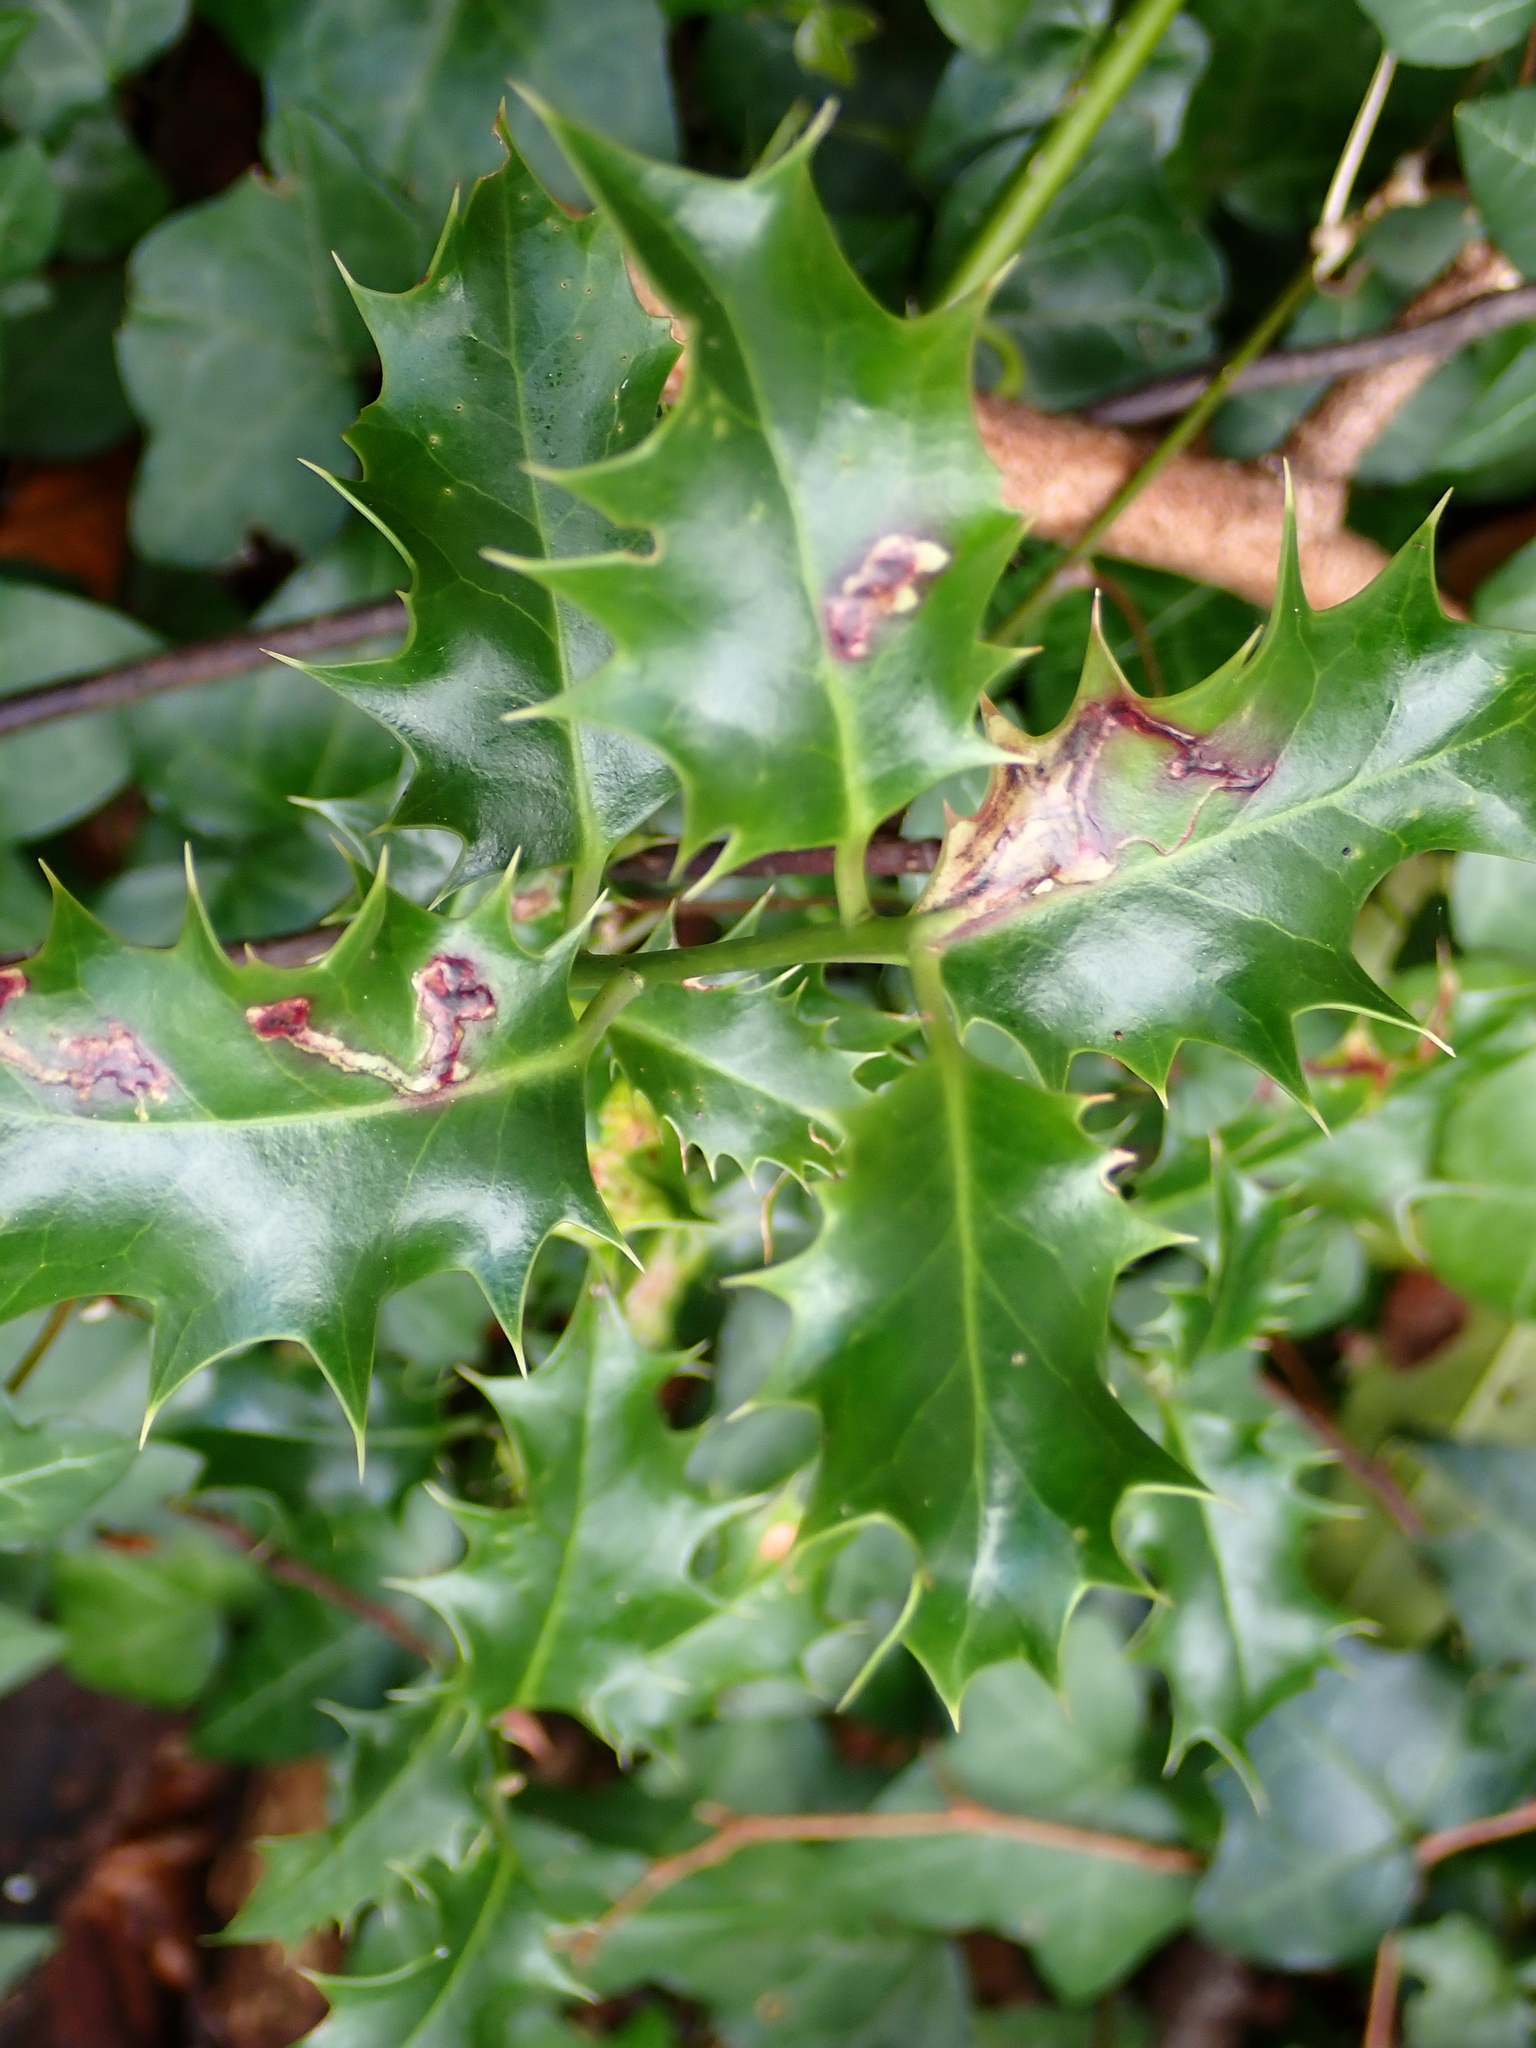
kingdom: Plantae
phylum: Tracheophyta
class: Magnoliopsida
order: Aquifoliales
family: Aquifoliaceae
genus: Ilex
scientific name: Ilex aquifolium
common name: English holly
